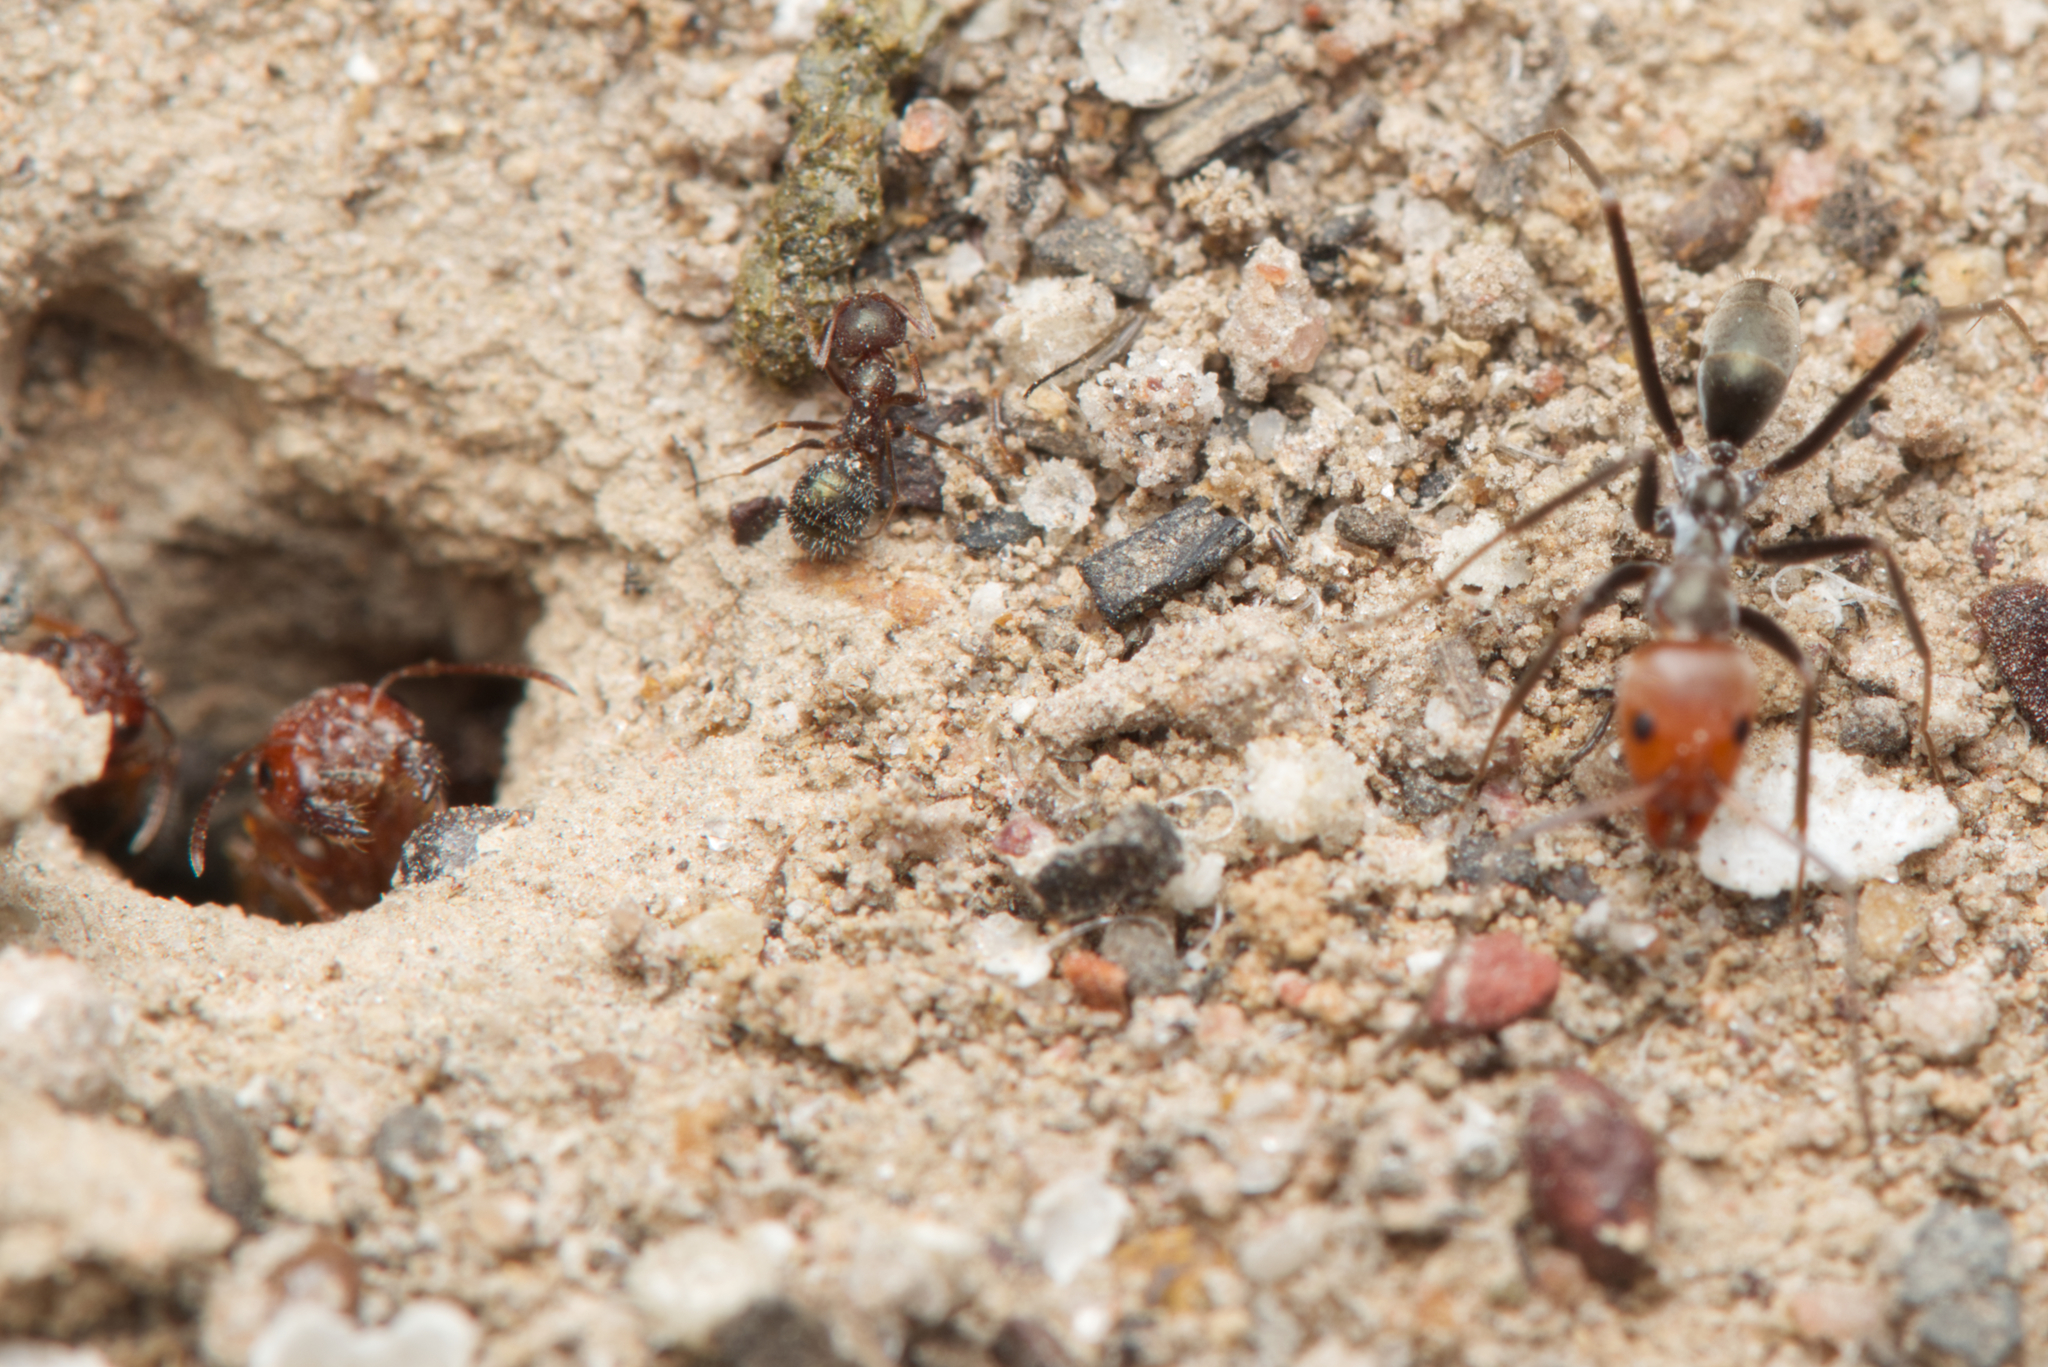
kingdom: Animalia
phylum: Arthropoda
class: Insecta
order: Hymenoptera
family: Formicidae
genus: Iridomyrmex
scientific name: Iridomyrmex
